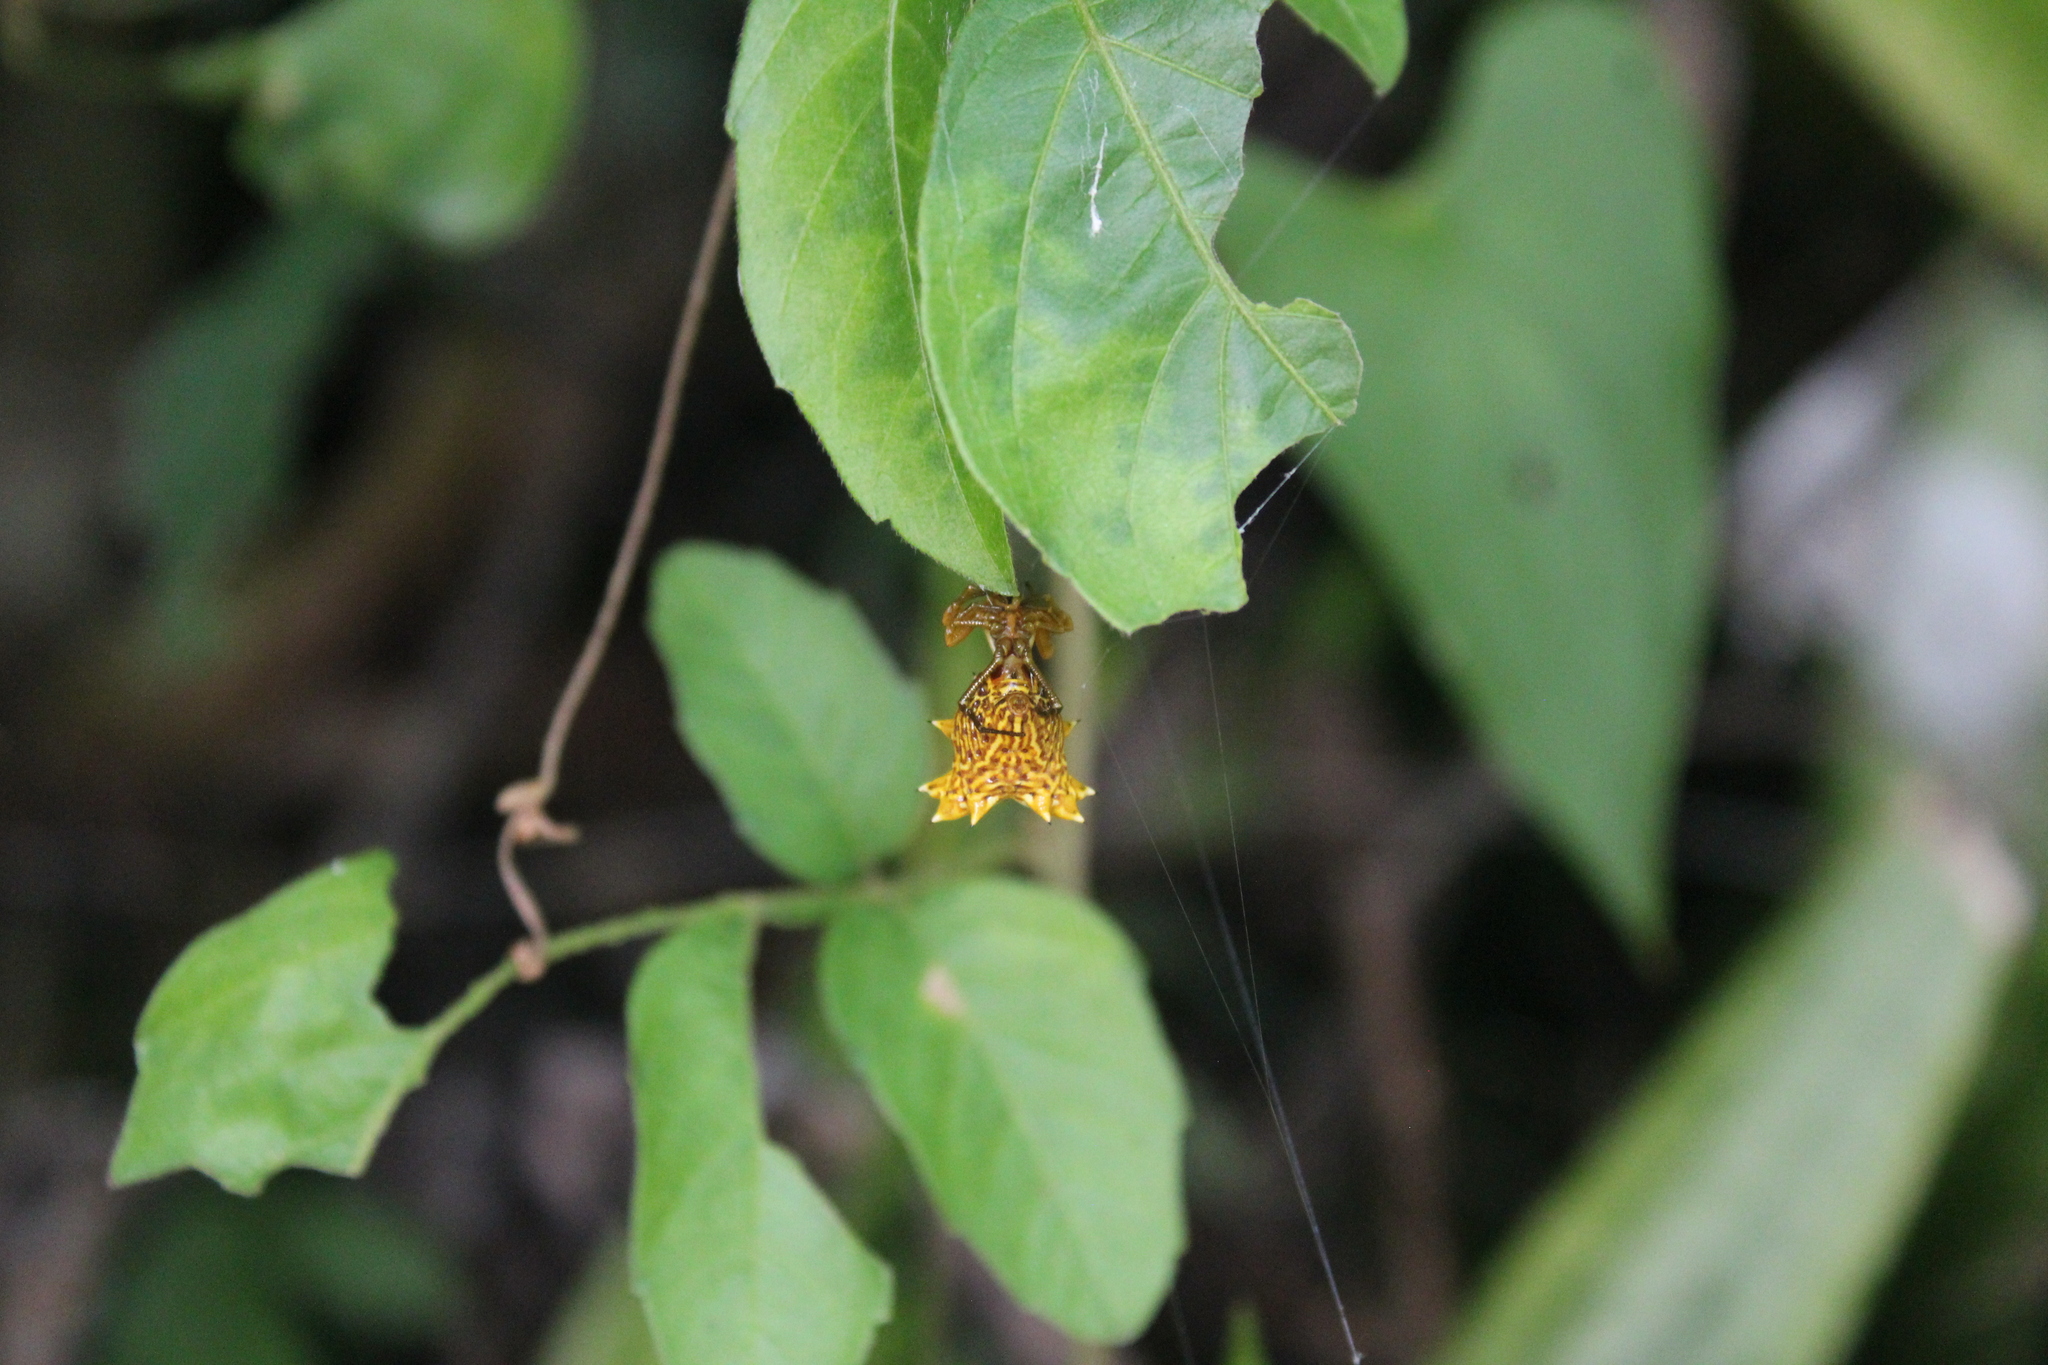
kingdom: Animalia
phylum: Arthropoda
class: Arachnida
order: Araneae
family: Araneidae
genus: Micrathena
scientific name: Micrathena gracilis
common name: Orb weavers
